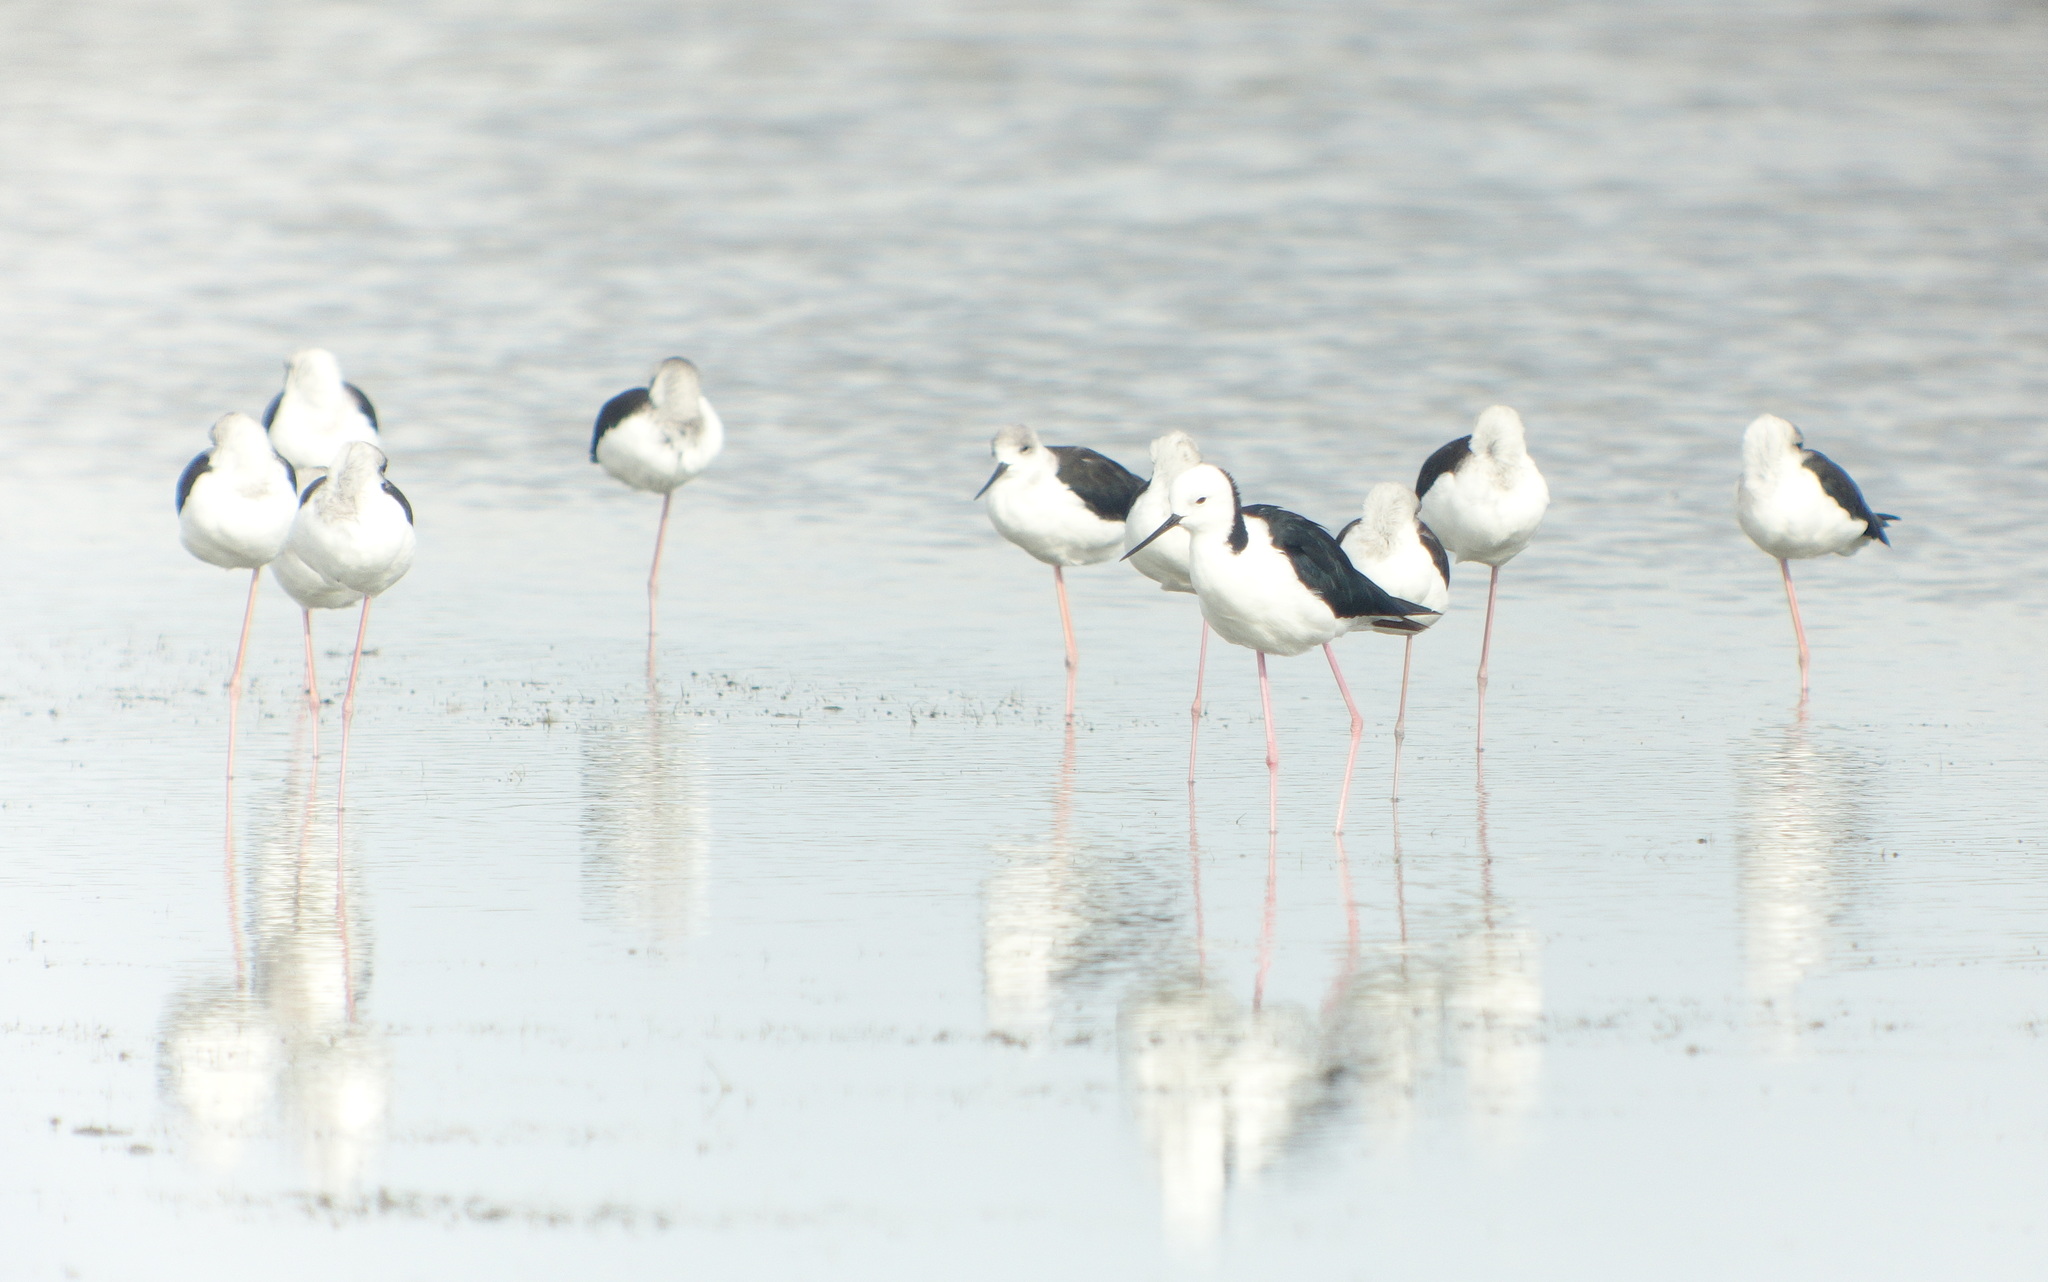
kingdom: Animalia
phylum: Chordata
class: Aves
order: Charadriiformes
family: Recurvirostridae
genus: Himantopus
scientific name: Himantopus leucocephalus
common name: White-headed stilt
